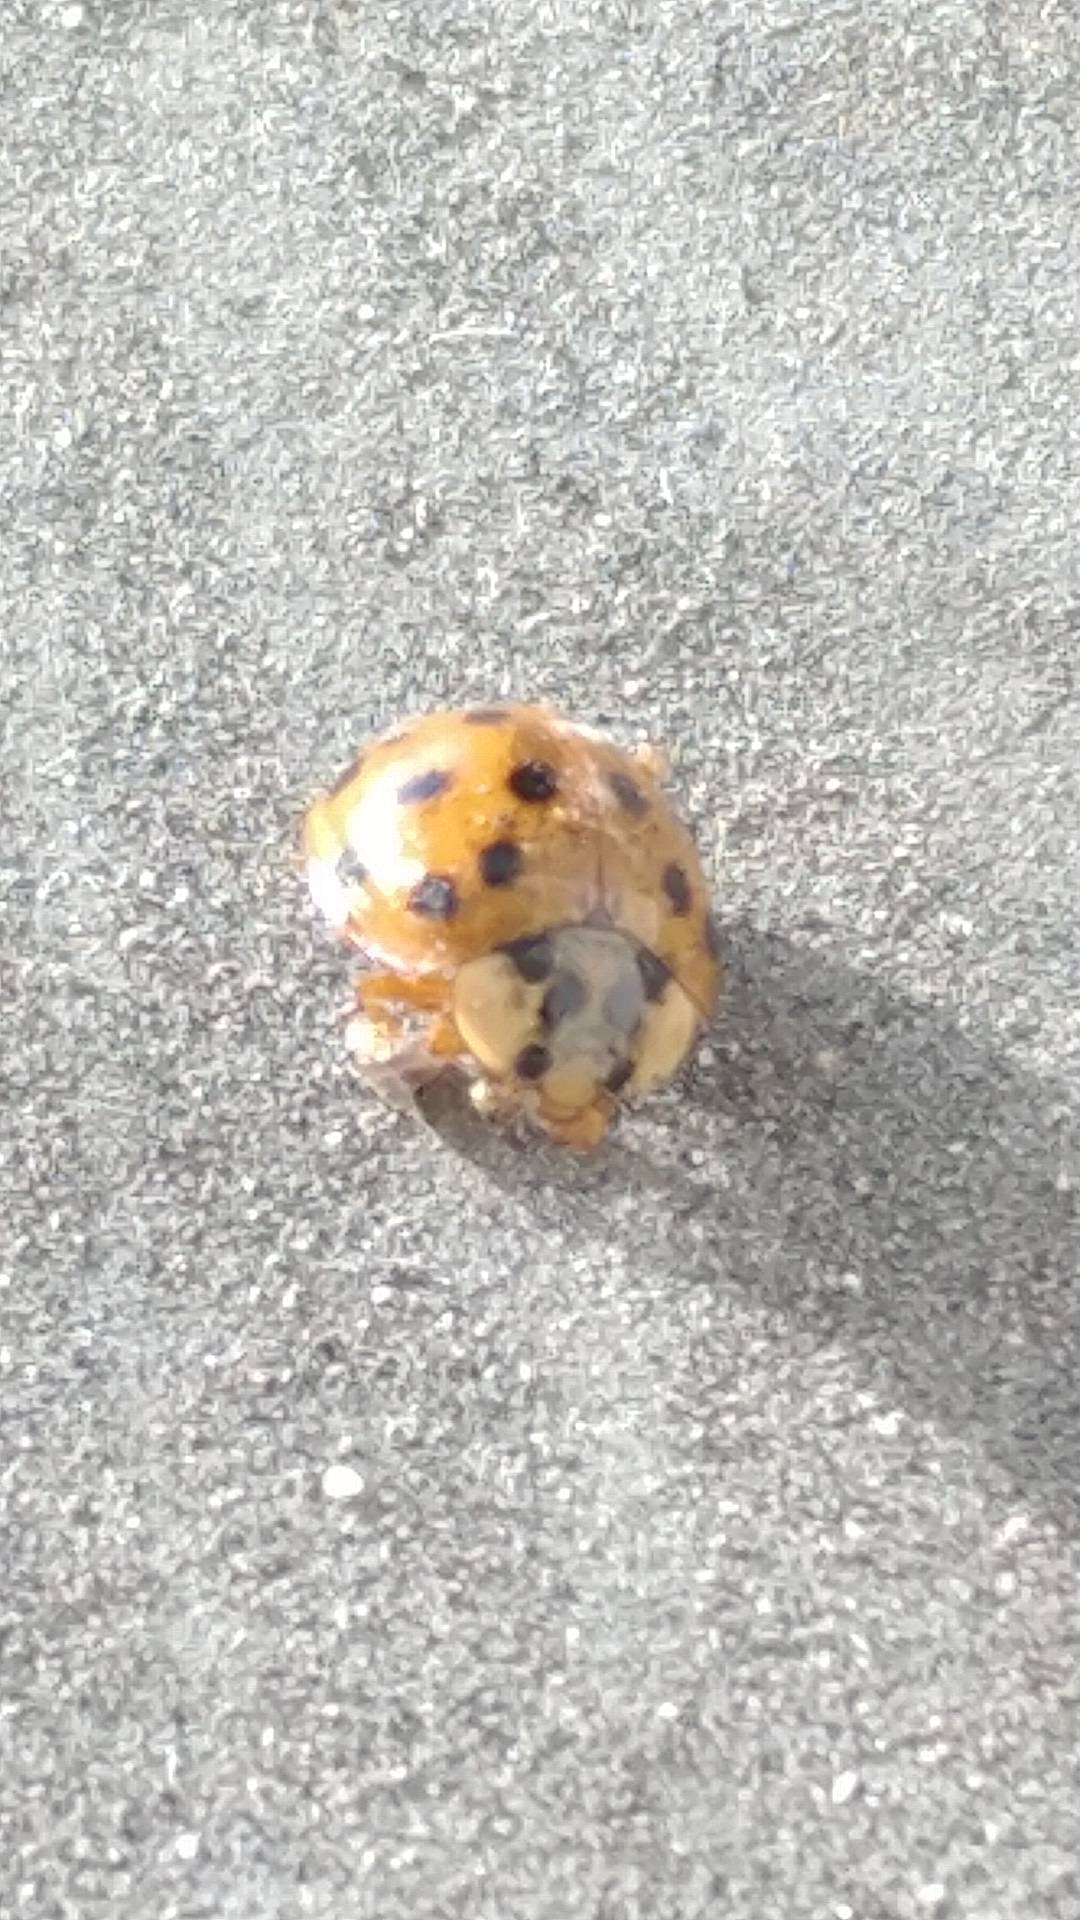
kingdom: Animalia
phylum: Arthropoda
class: Insecta
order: Coleoptera
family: Coccinellidae
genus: Harmonia
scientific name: Harmonia axyridis
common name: Harlequin ladybird
